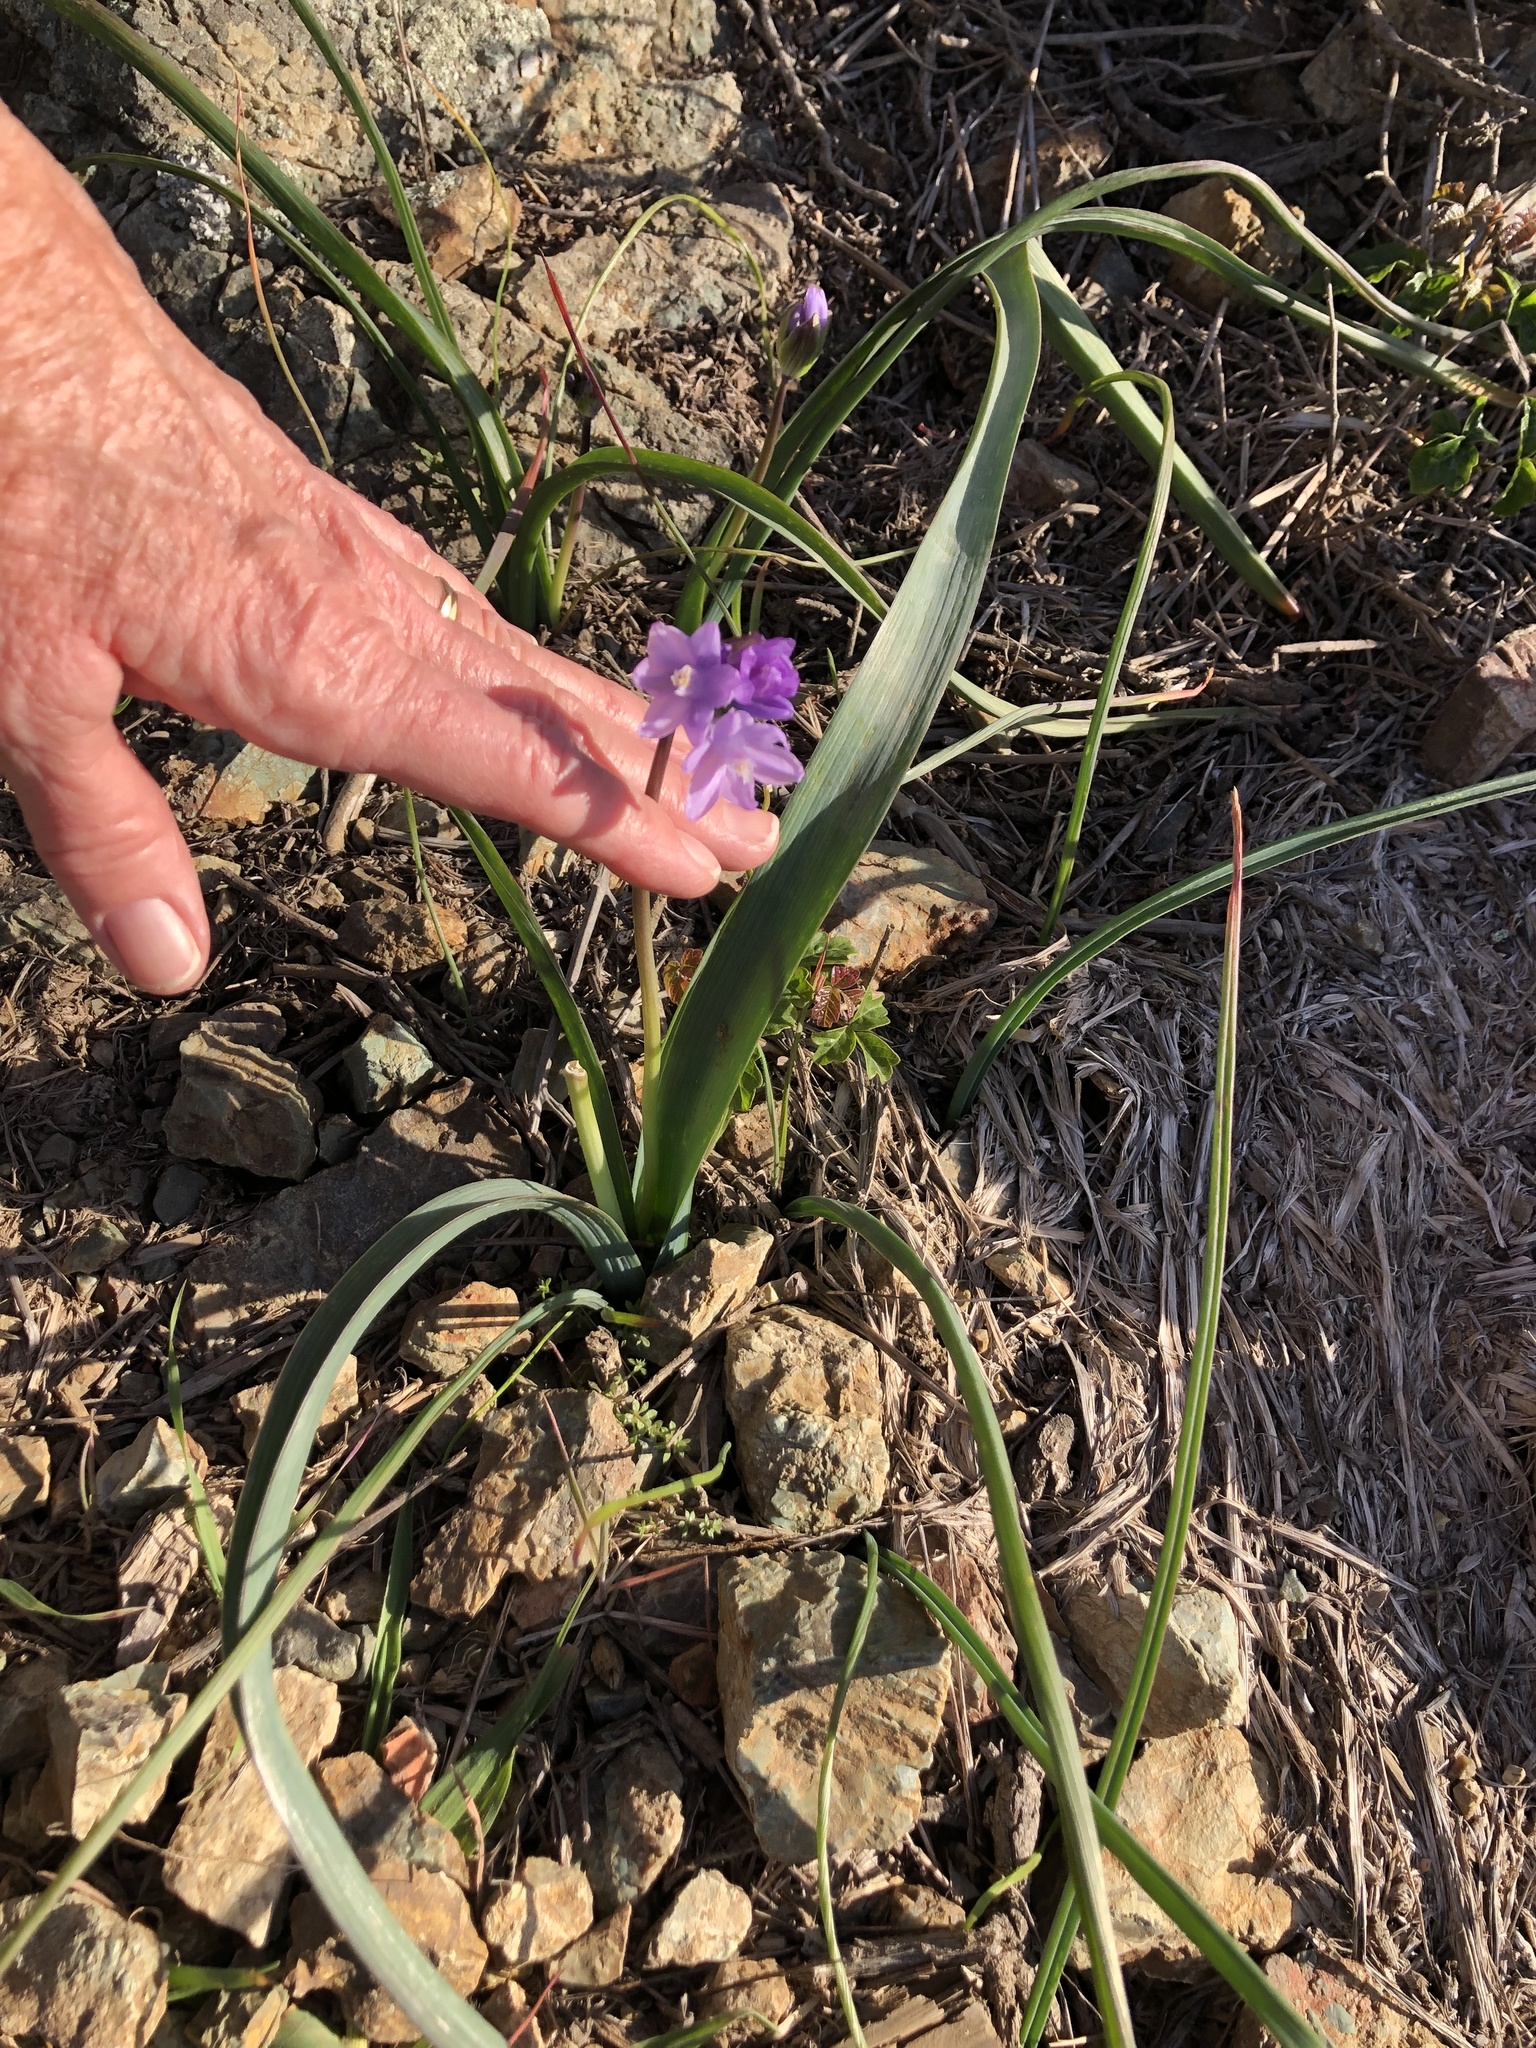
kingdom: Plantae
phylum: Tracheophyta
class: Liliopsida
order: Asparagales
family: Asparagaceae
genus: Dipterostemon
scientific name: Dipterostemon capitatus
